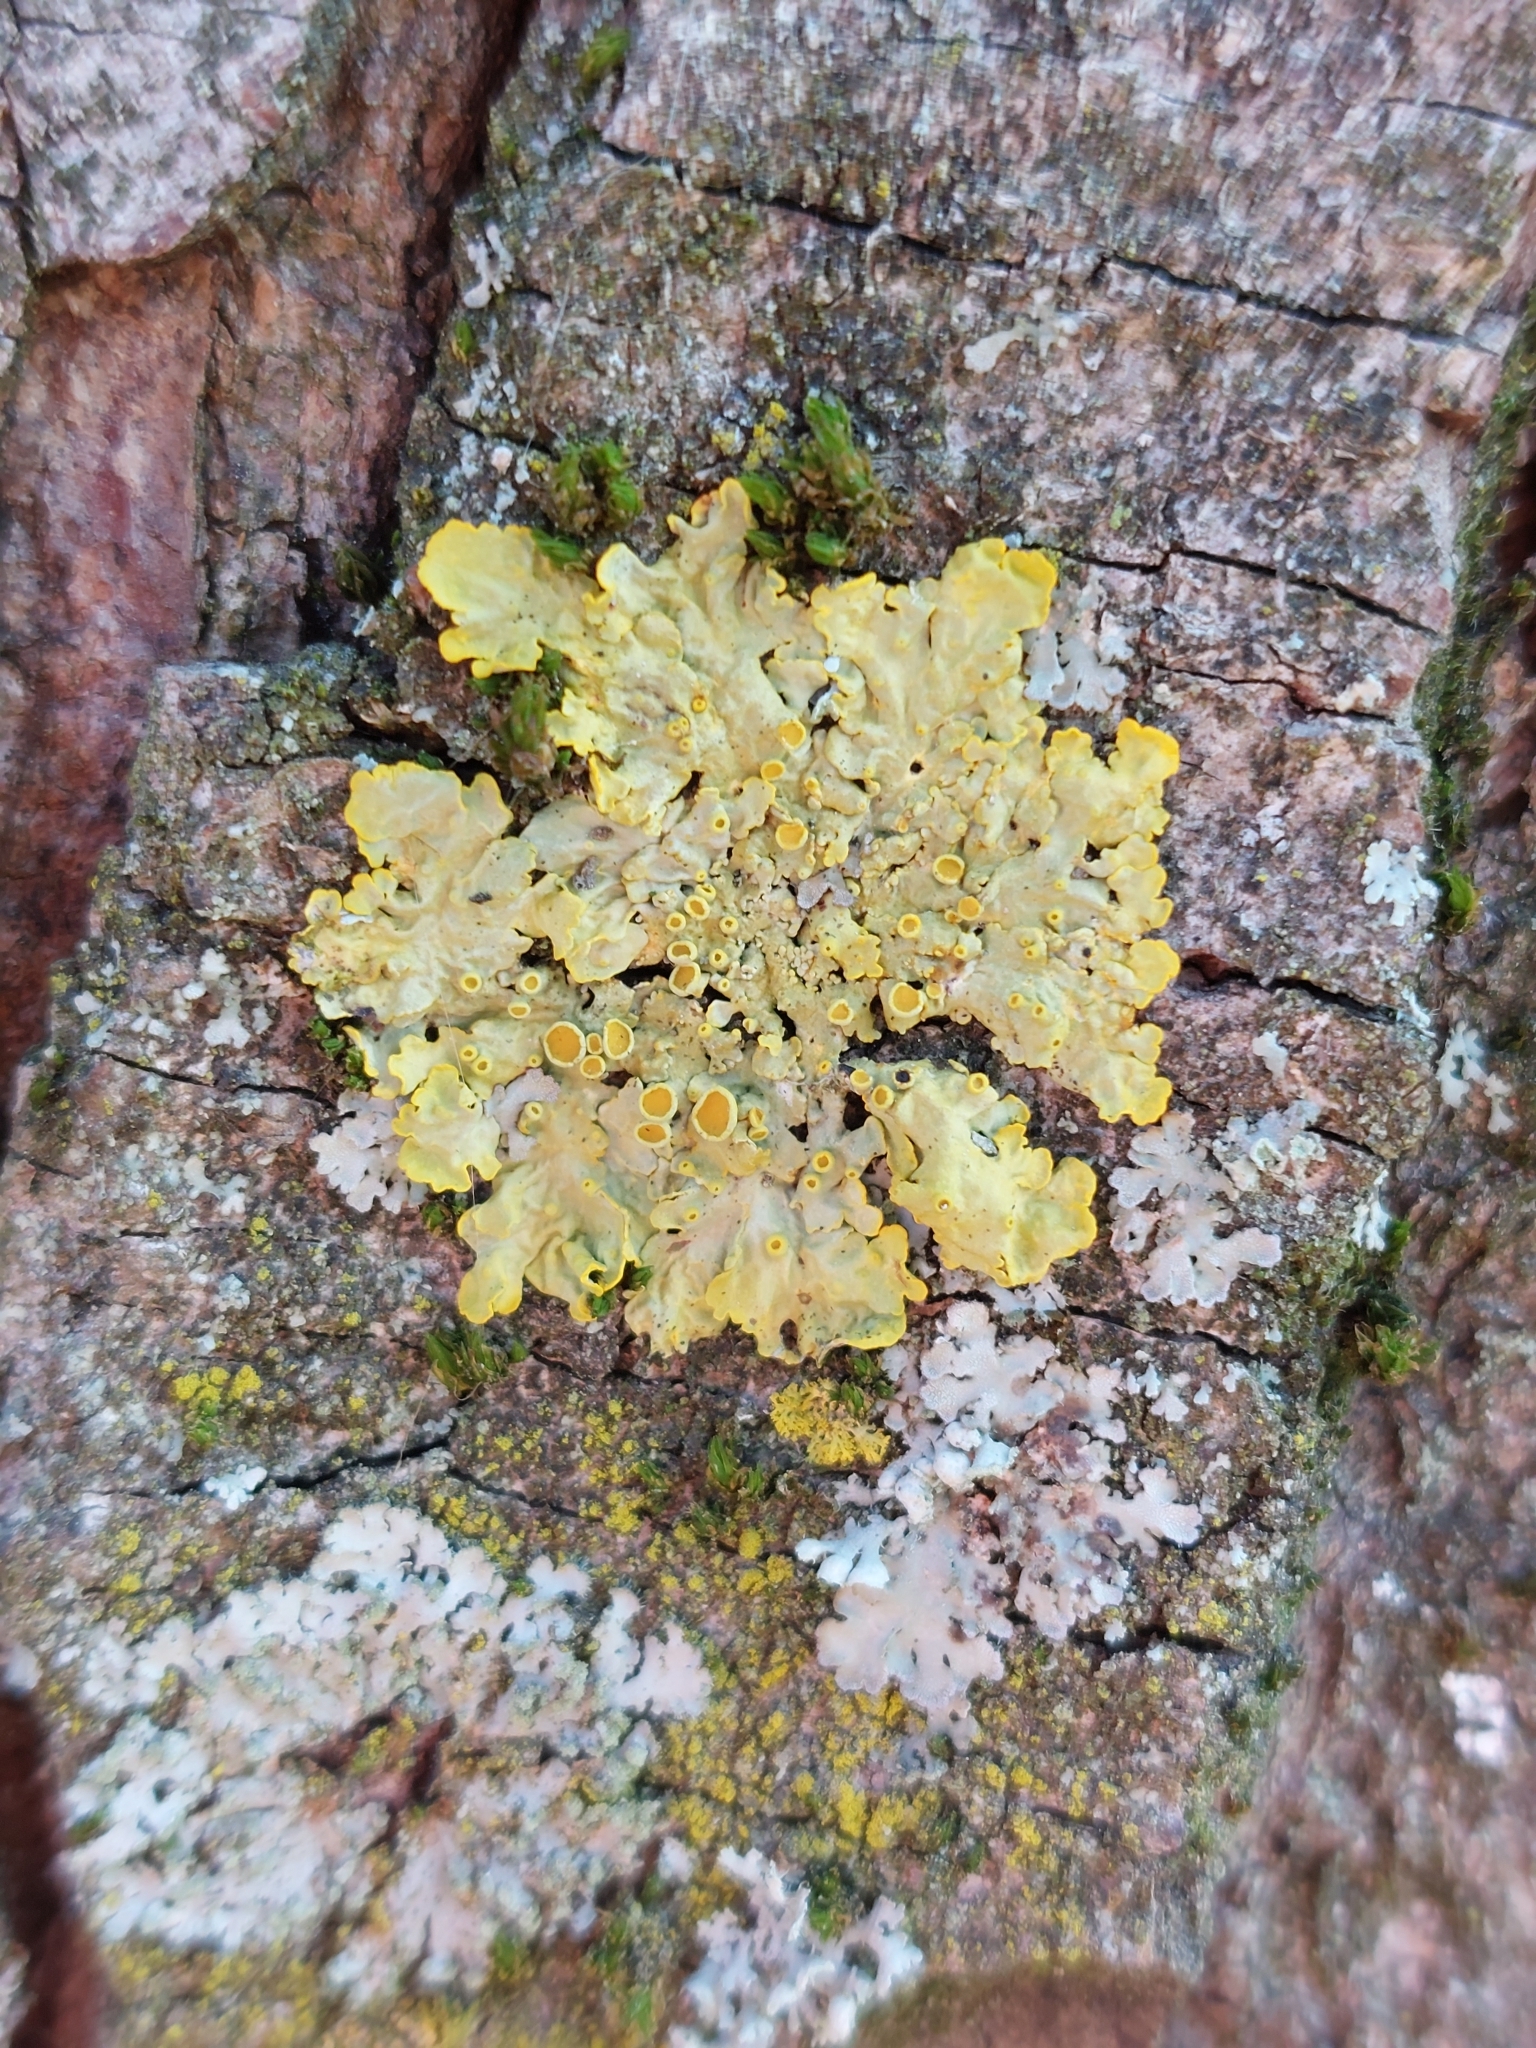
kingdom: Fungi
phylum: Ascomycota
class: Lecanoromycetes
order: Teloschistales
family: Teloschistaceae
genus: Xanthoria
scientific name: Xanthoria parietina
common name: Common orange lichen
